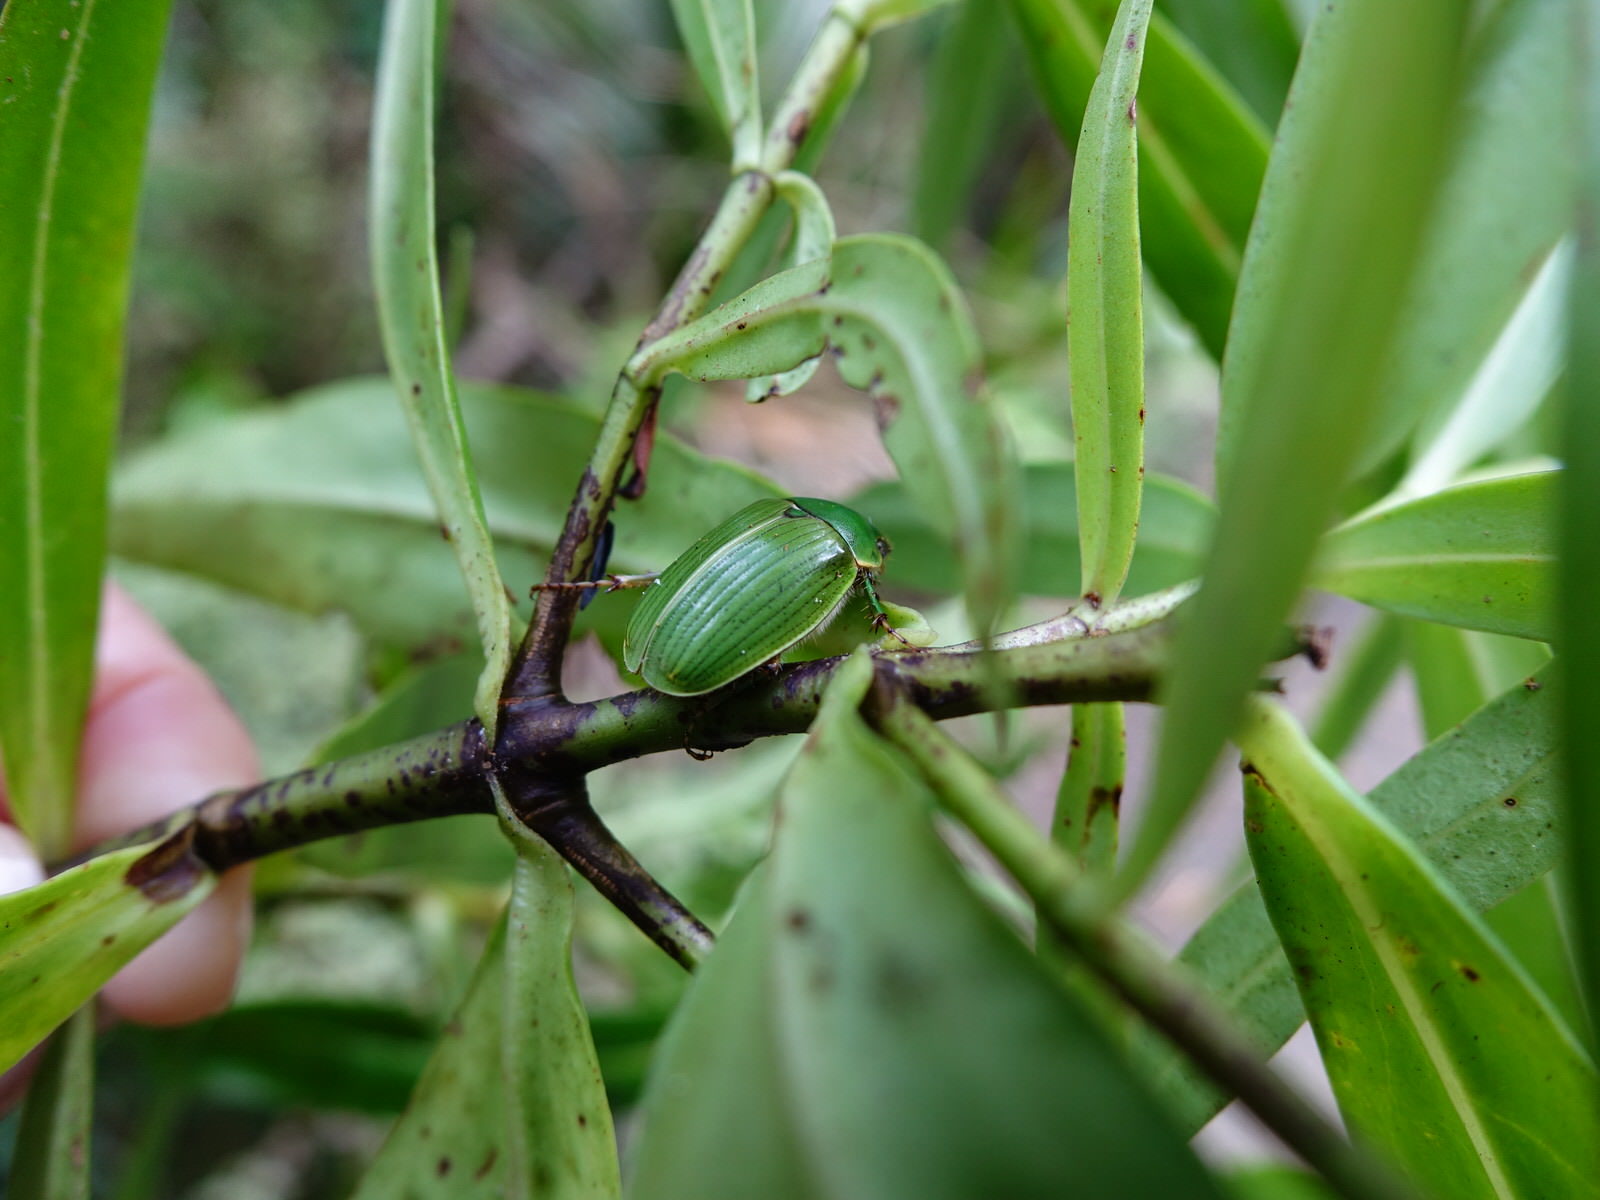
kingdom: Animalia
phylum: Arthropoda
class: Insecta
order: Coleoptera
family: Scarabaeidae
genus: Stethaspis
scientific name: Stethaspis longicornis
